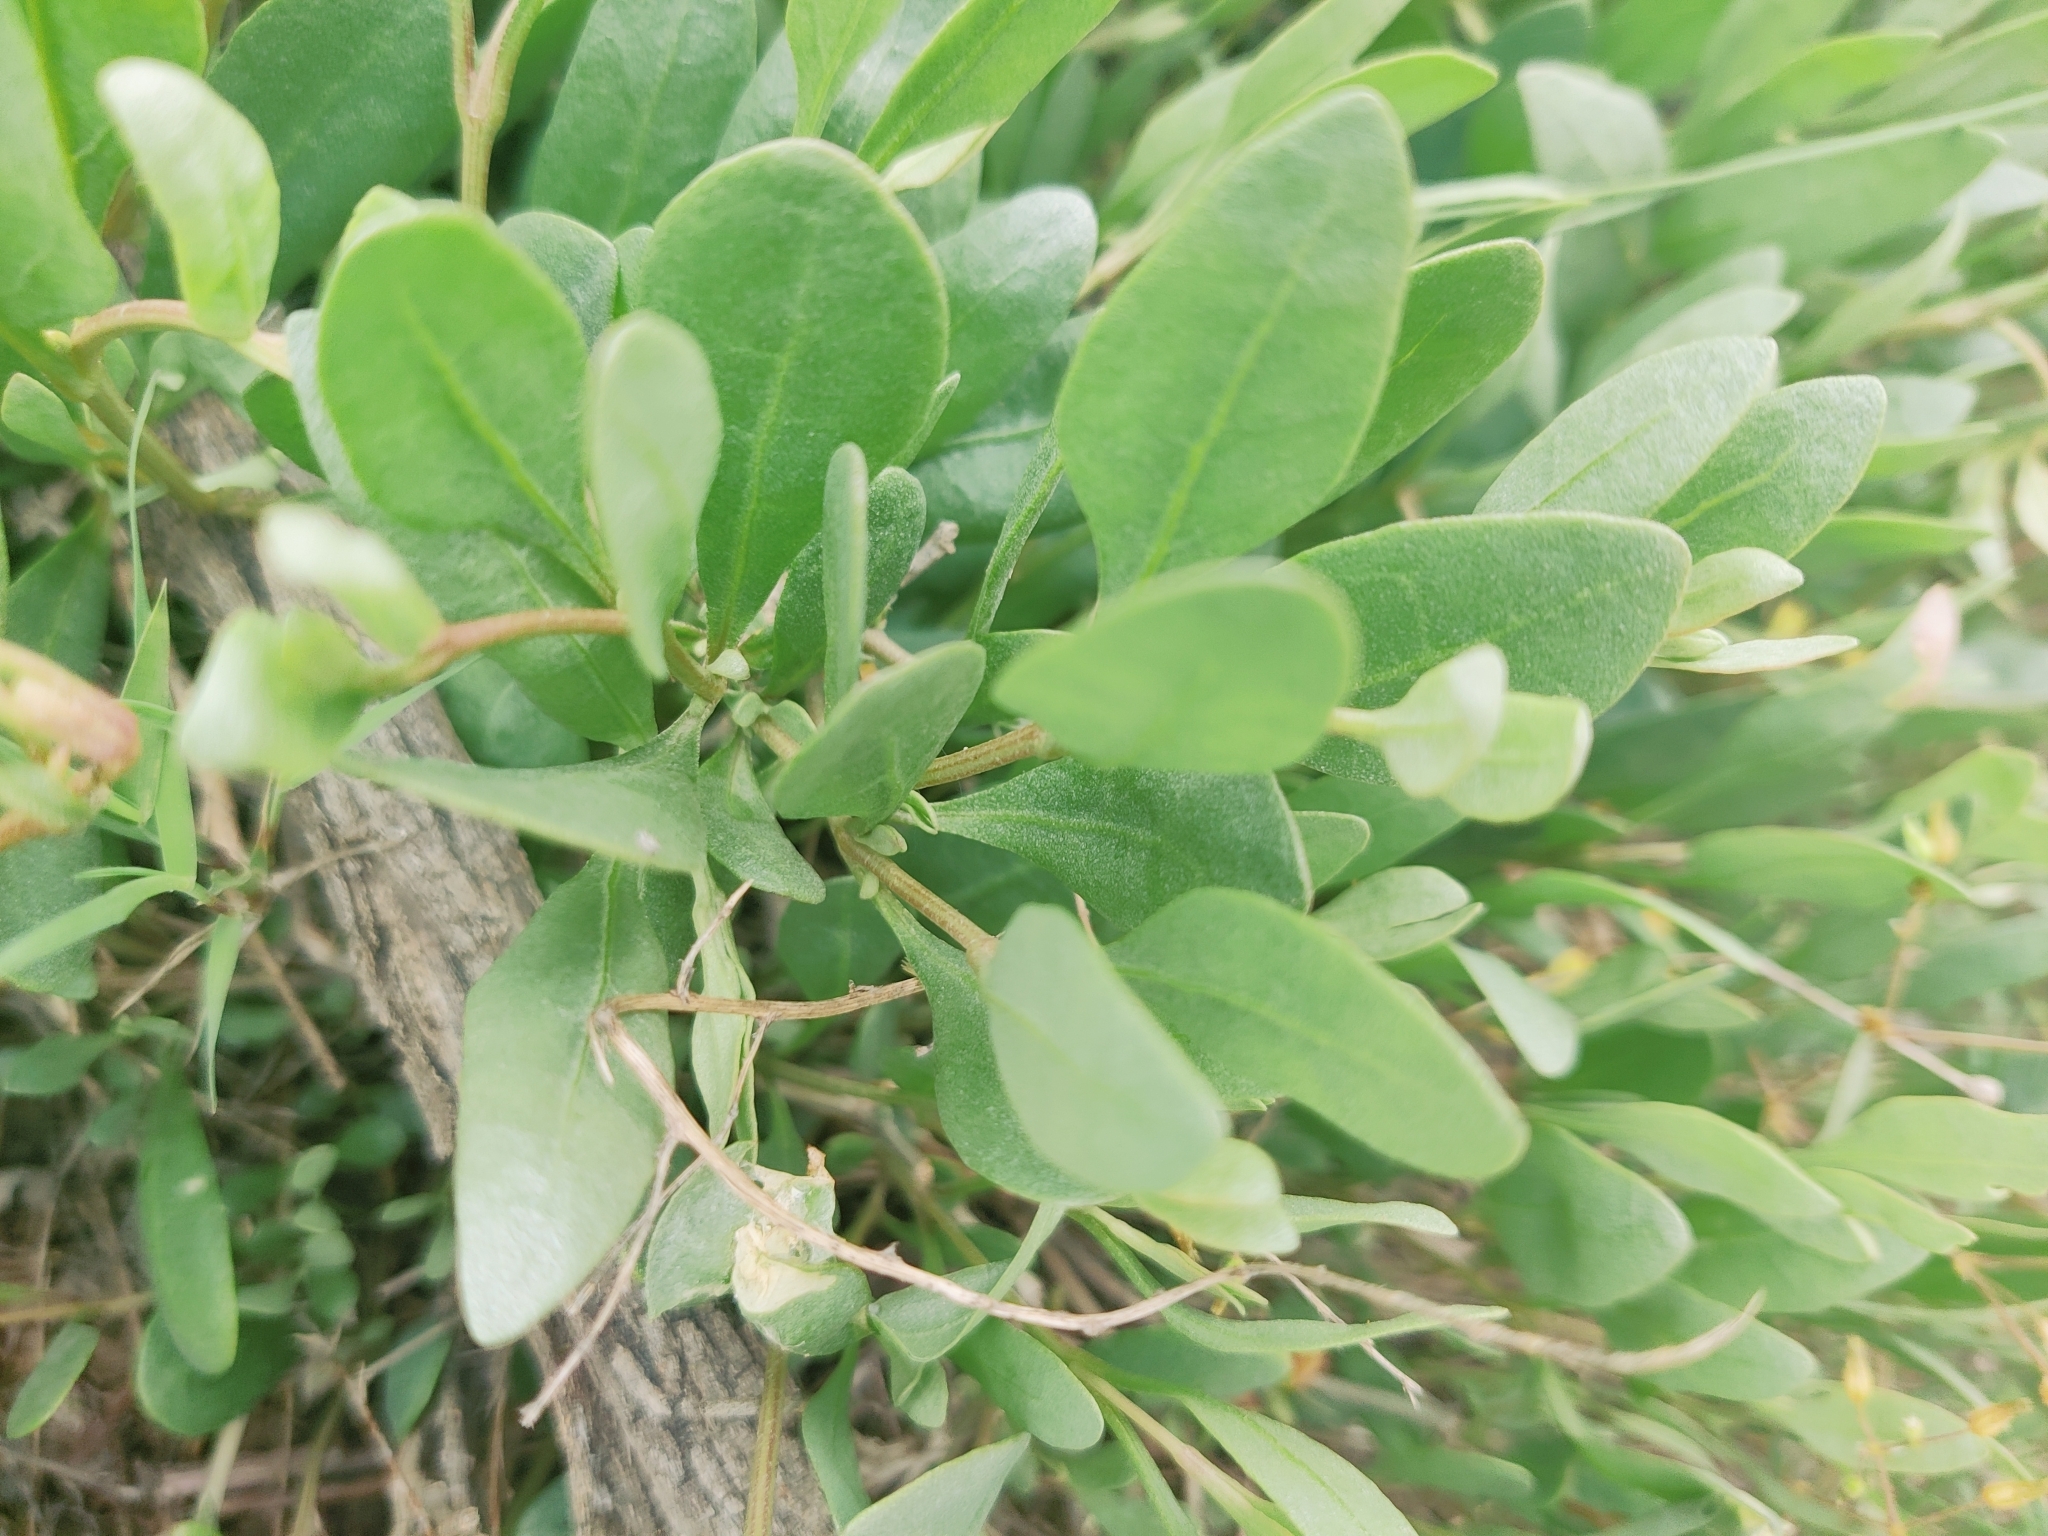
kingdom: Plantae
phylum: Tracheophyta
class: Magnoliopsida
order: Caryophyllales
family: Amaranthaceae
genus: Halimione
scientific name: Halimione verrucifera
